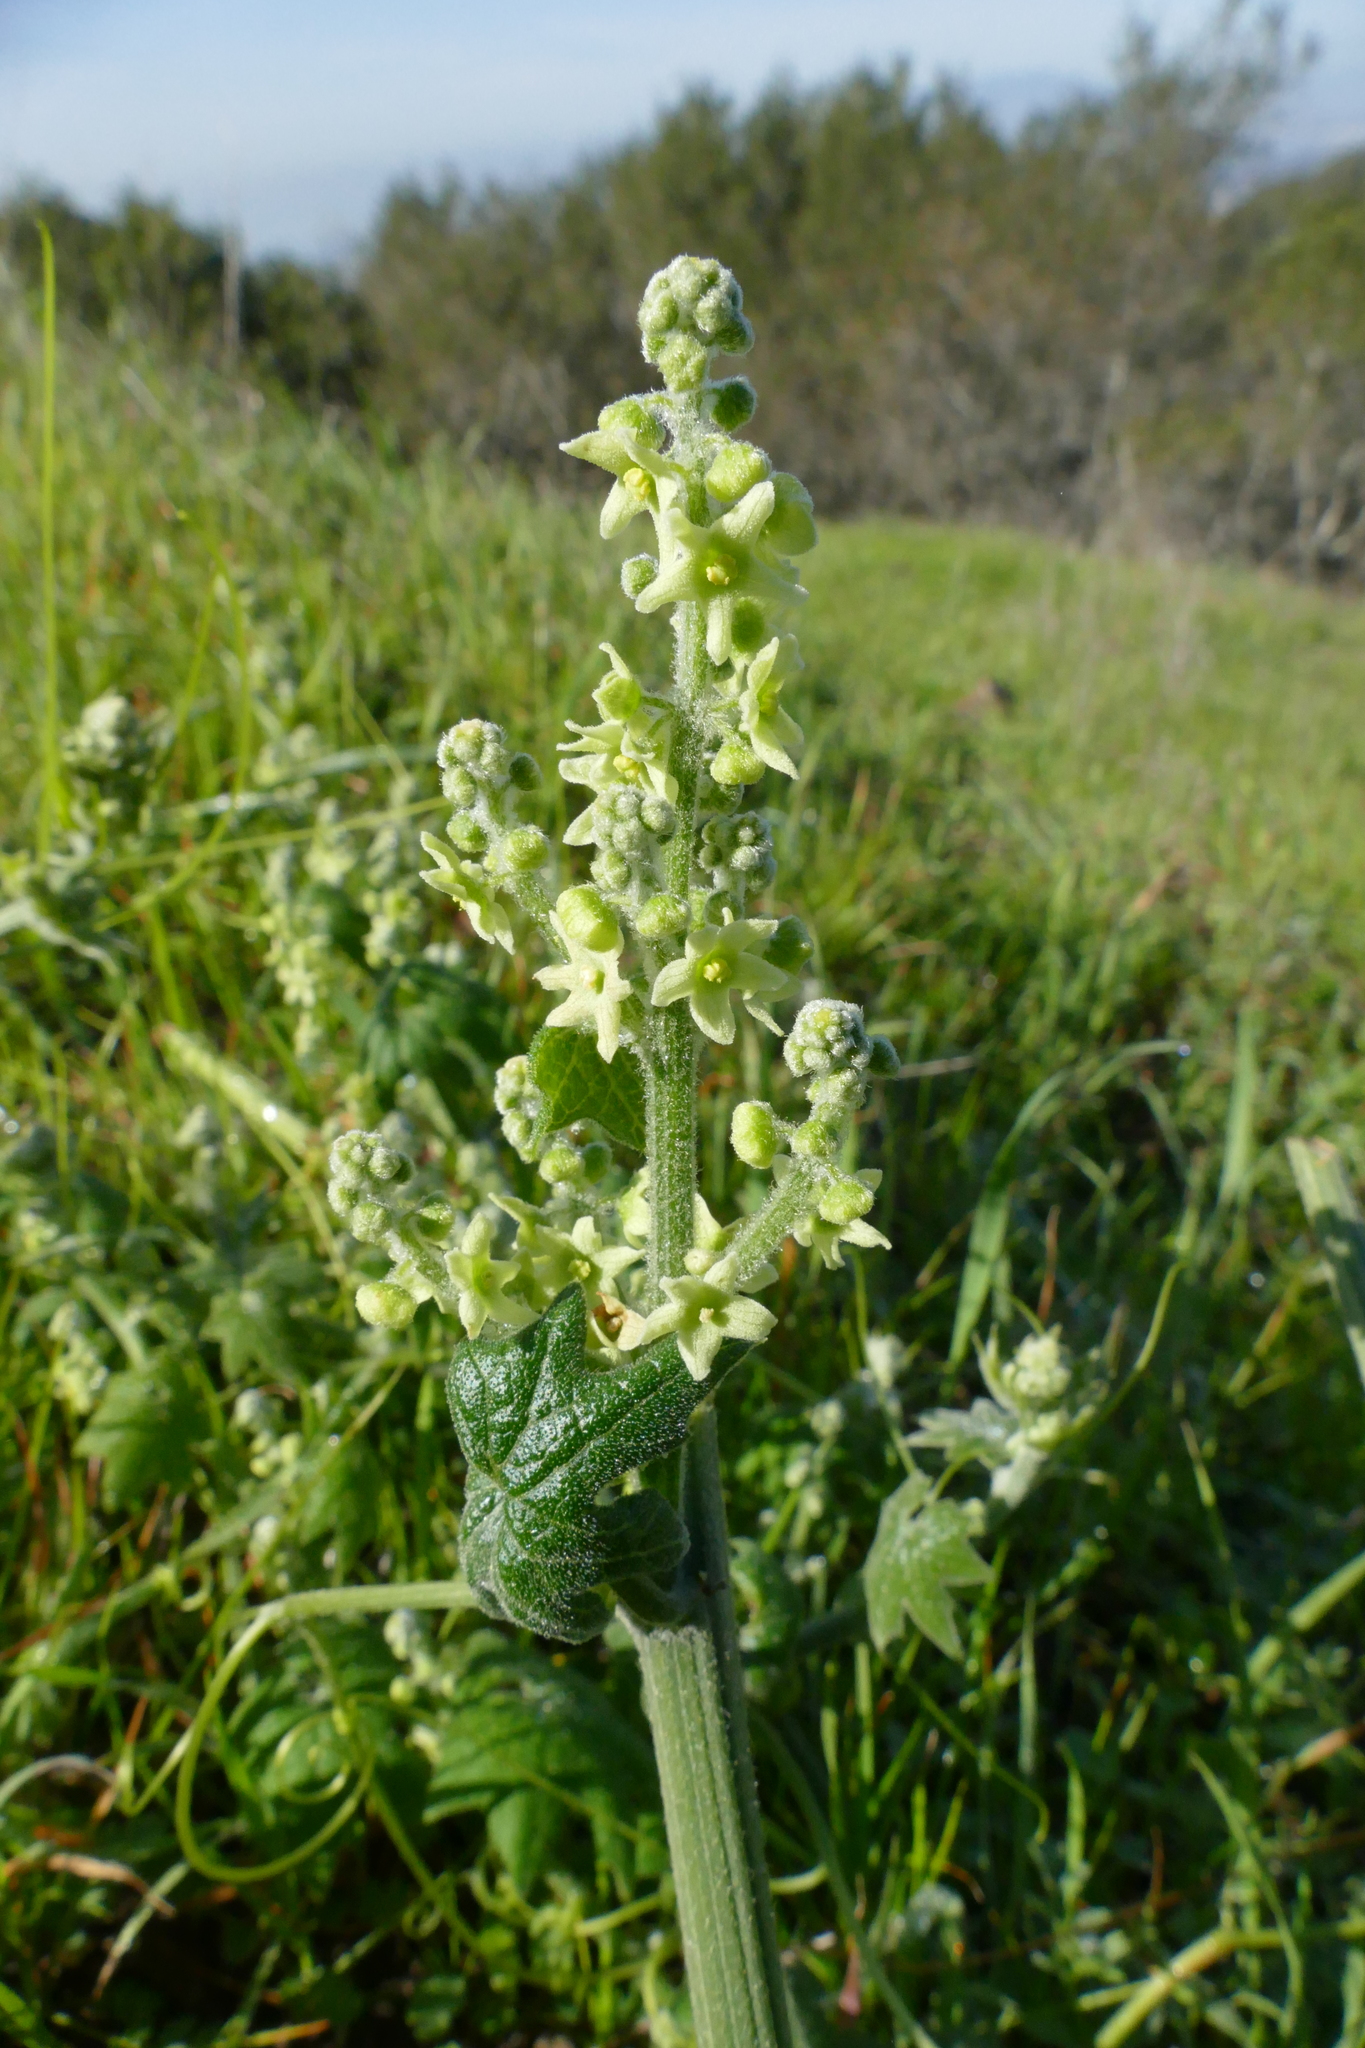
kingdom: Plantae
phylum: Tracheophyta
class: Magnoliopsida
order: Cucurbitales
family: Cucurbitaceae
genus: Marah
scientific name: Marah fabacea
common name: California manroot
